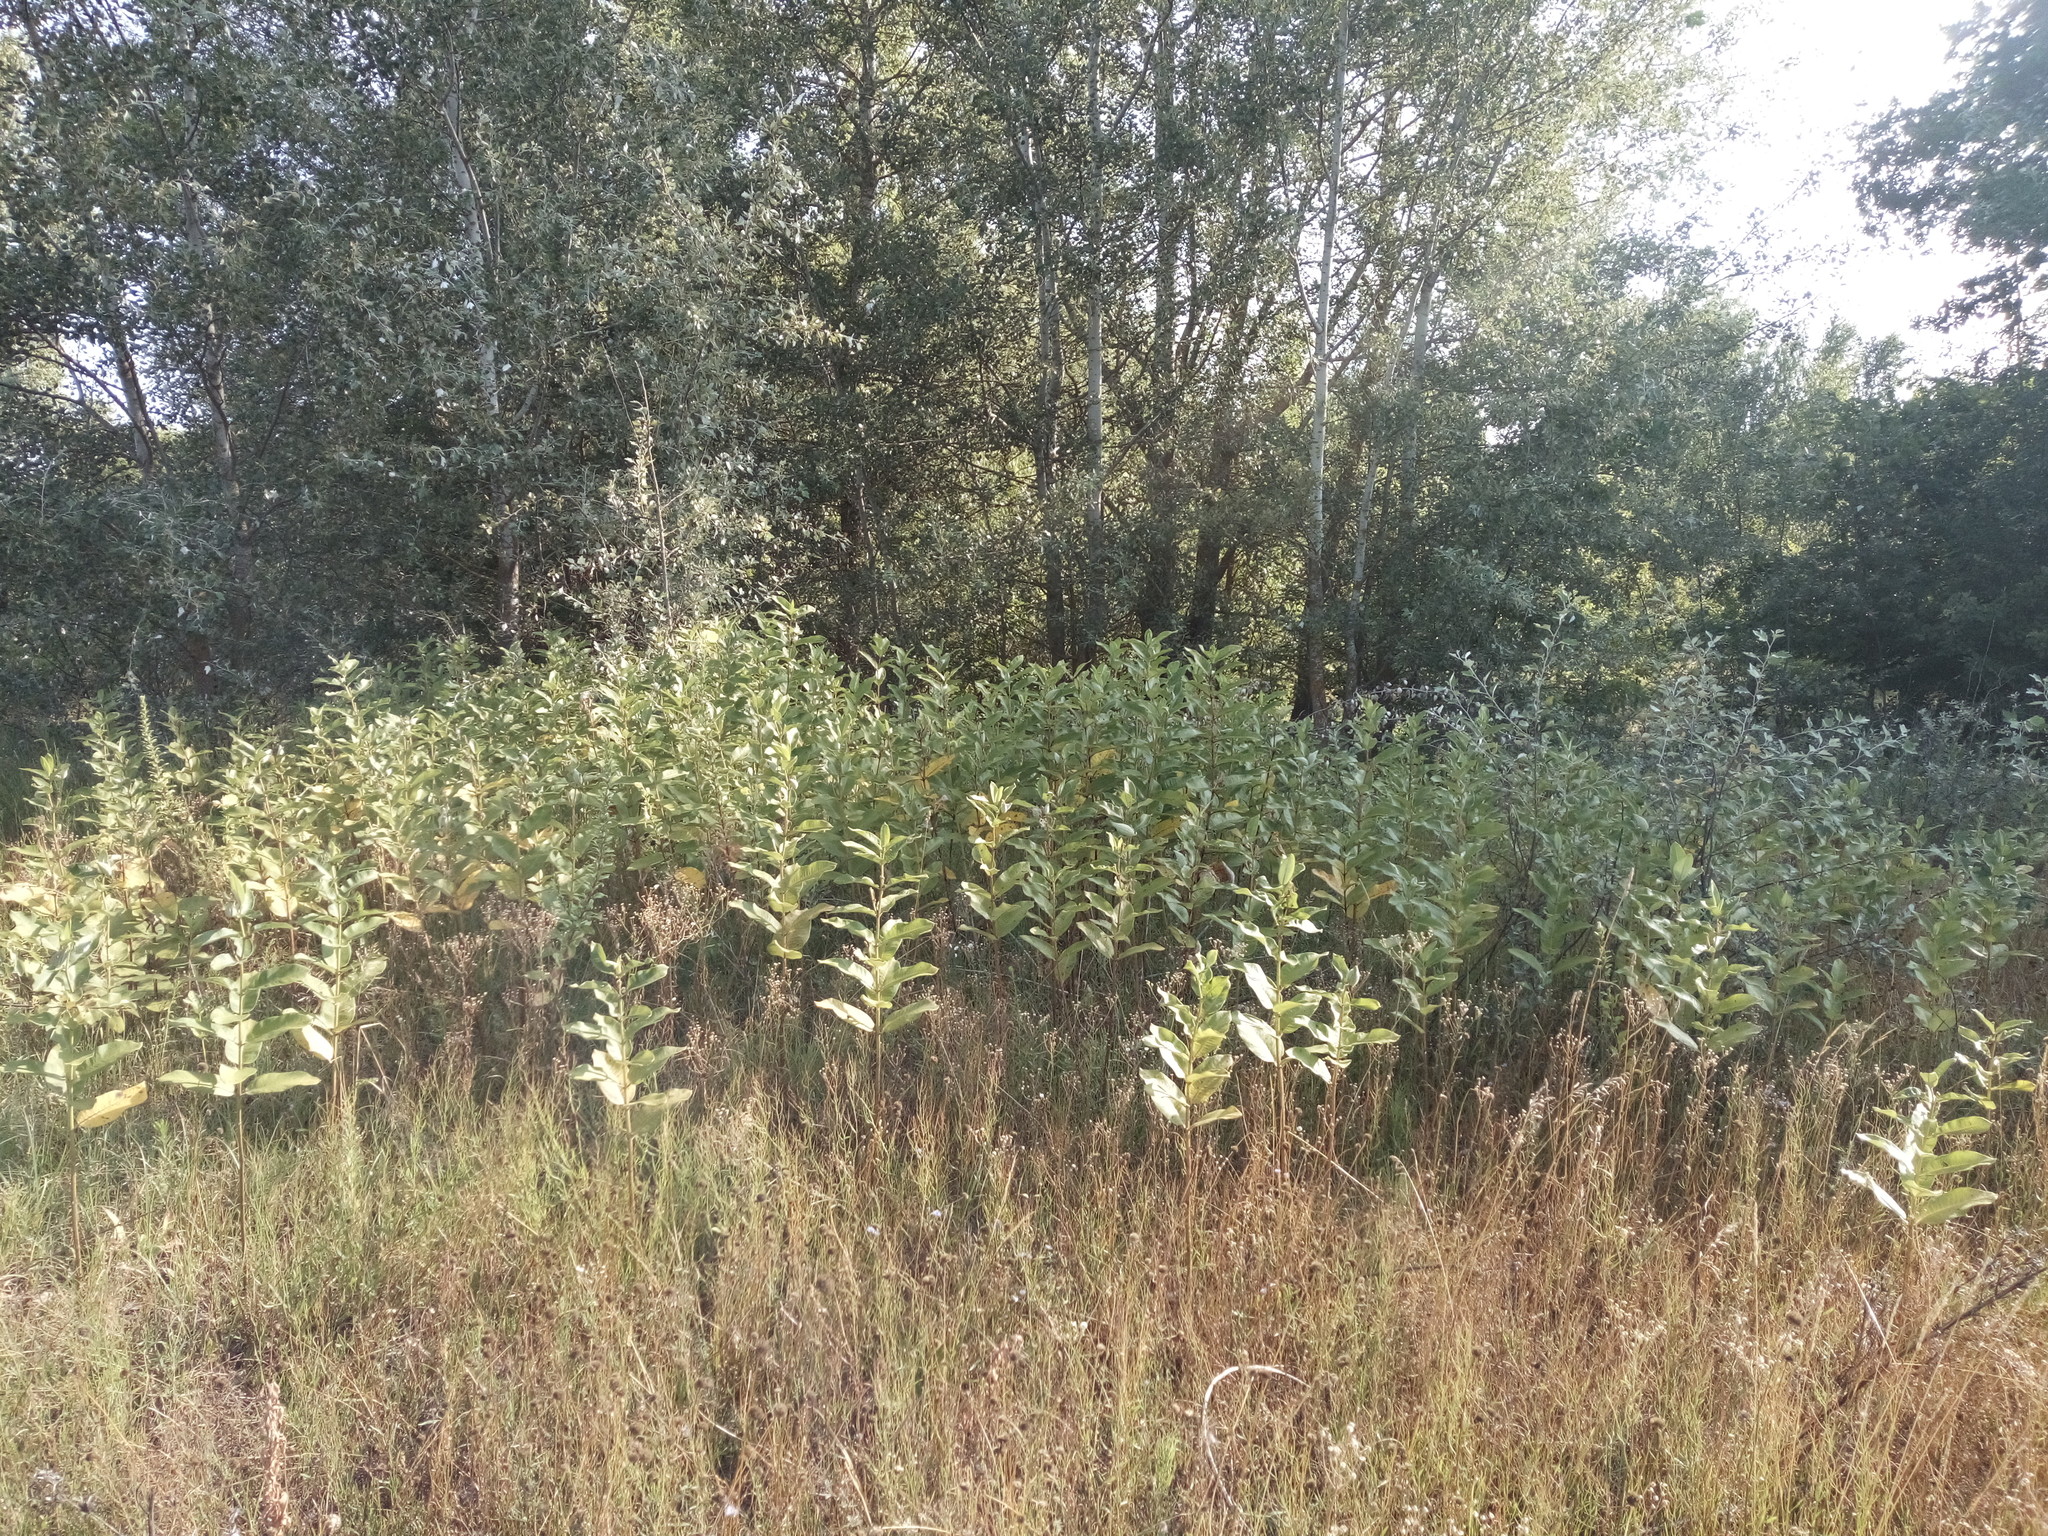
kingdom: Plantae
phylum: Tracheophyta
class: Magnoliopsida
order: Gentianales
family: Apocynaceae
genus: Asclepias
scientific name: Asclepias syriaca
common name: Common milkweed
